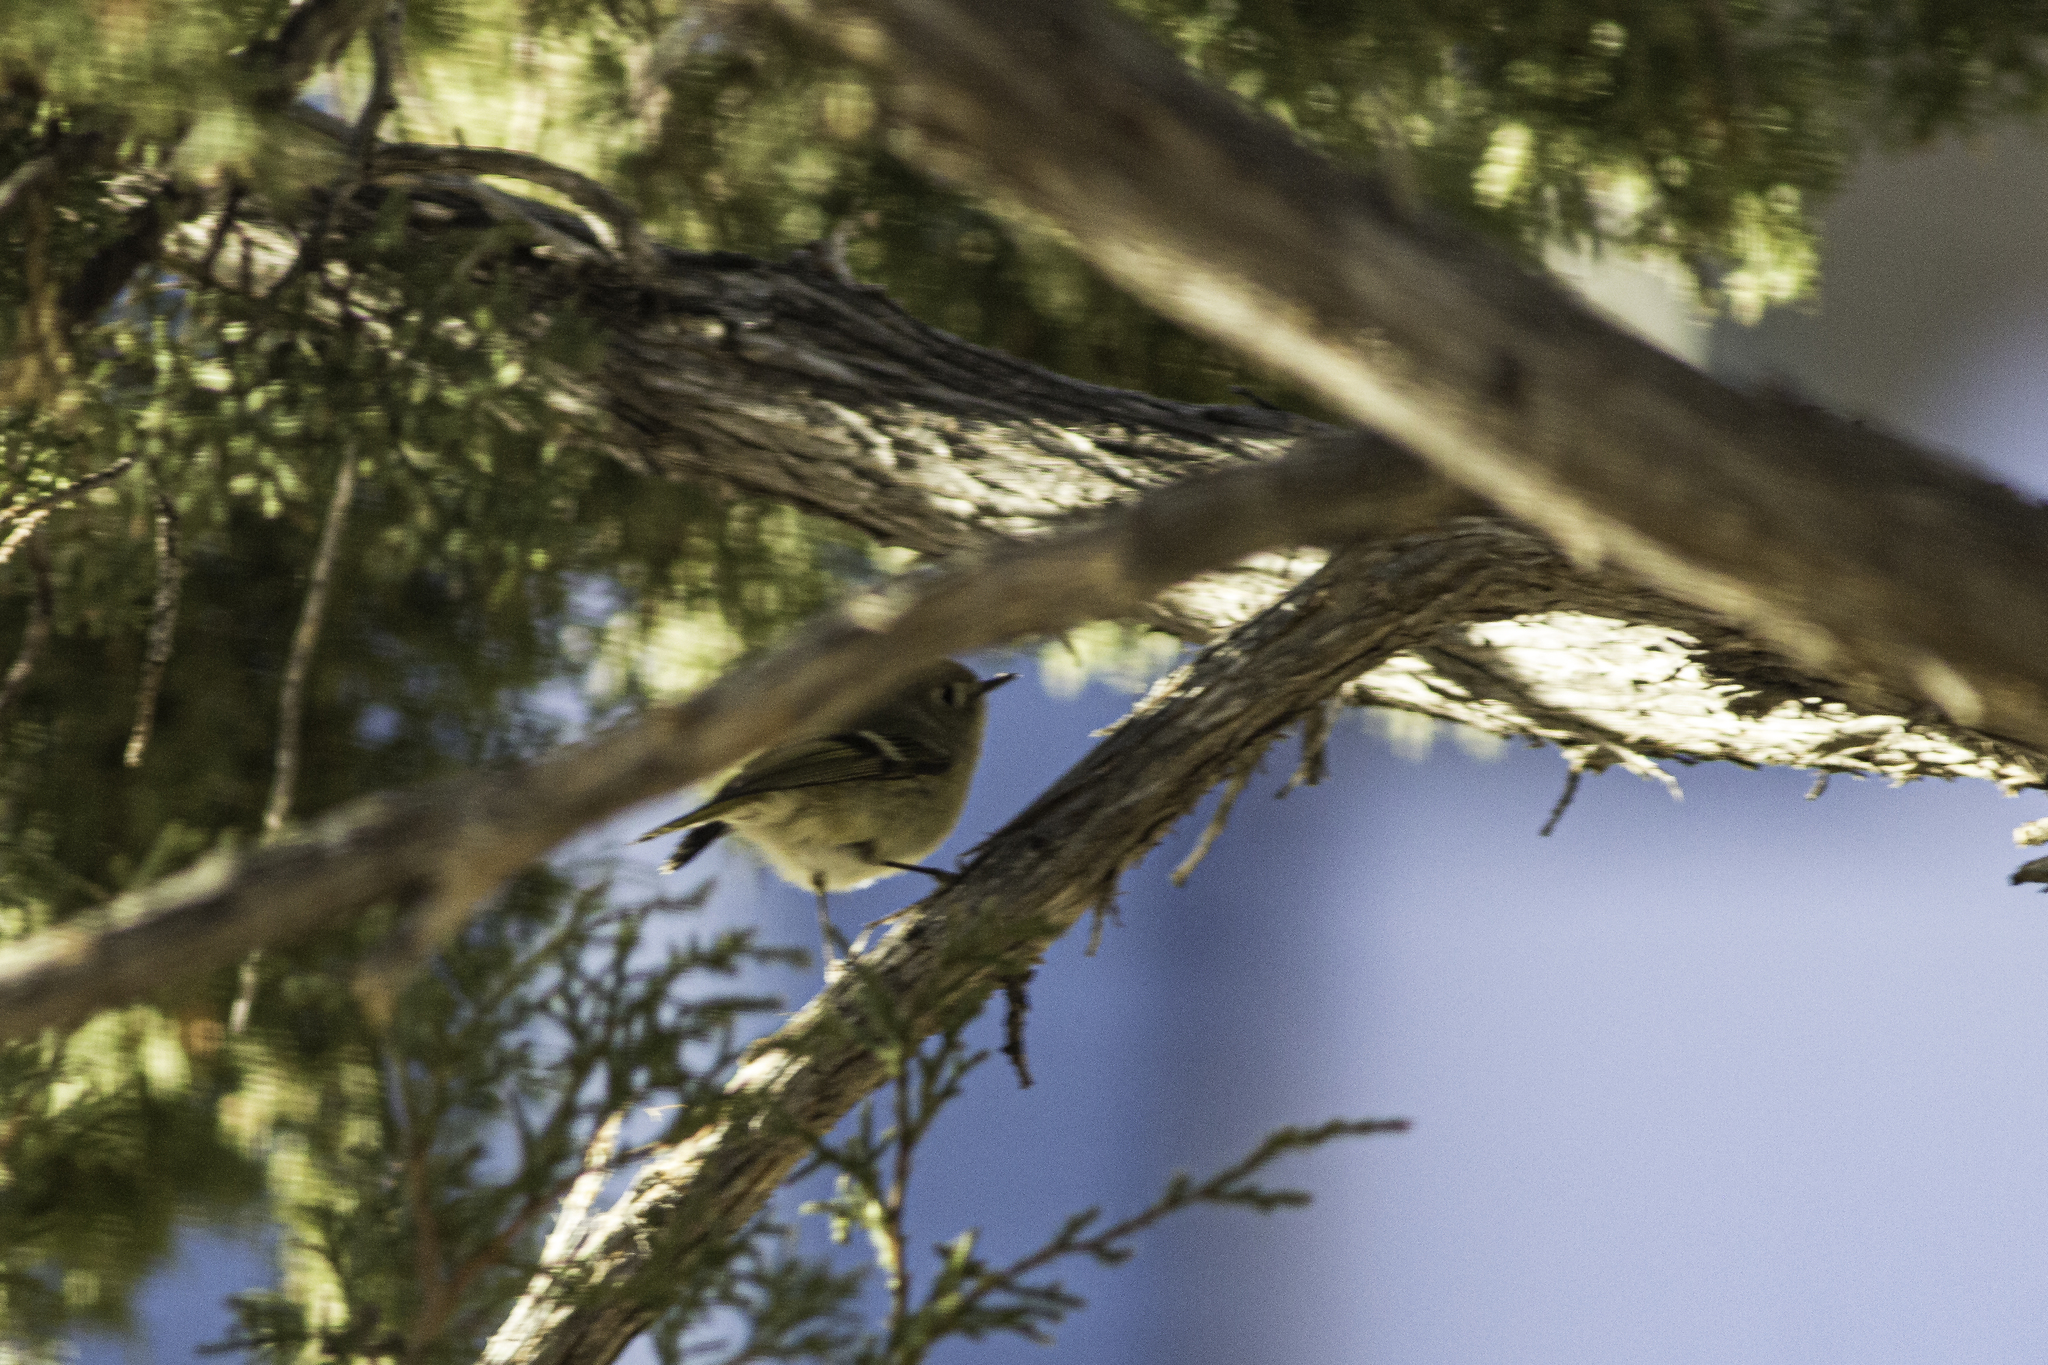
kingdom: Animalia
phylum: Chordata
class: Aves
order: Passeriformes
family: Regulidae
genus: Regulus
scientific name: Regulus calendula
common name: Ruby-crowned kinglet
